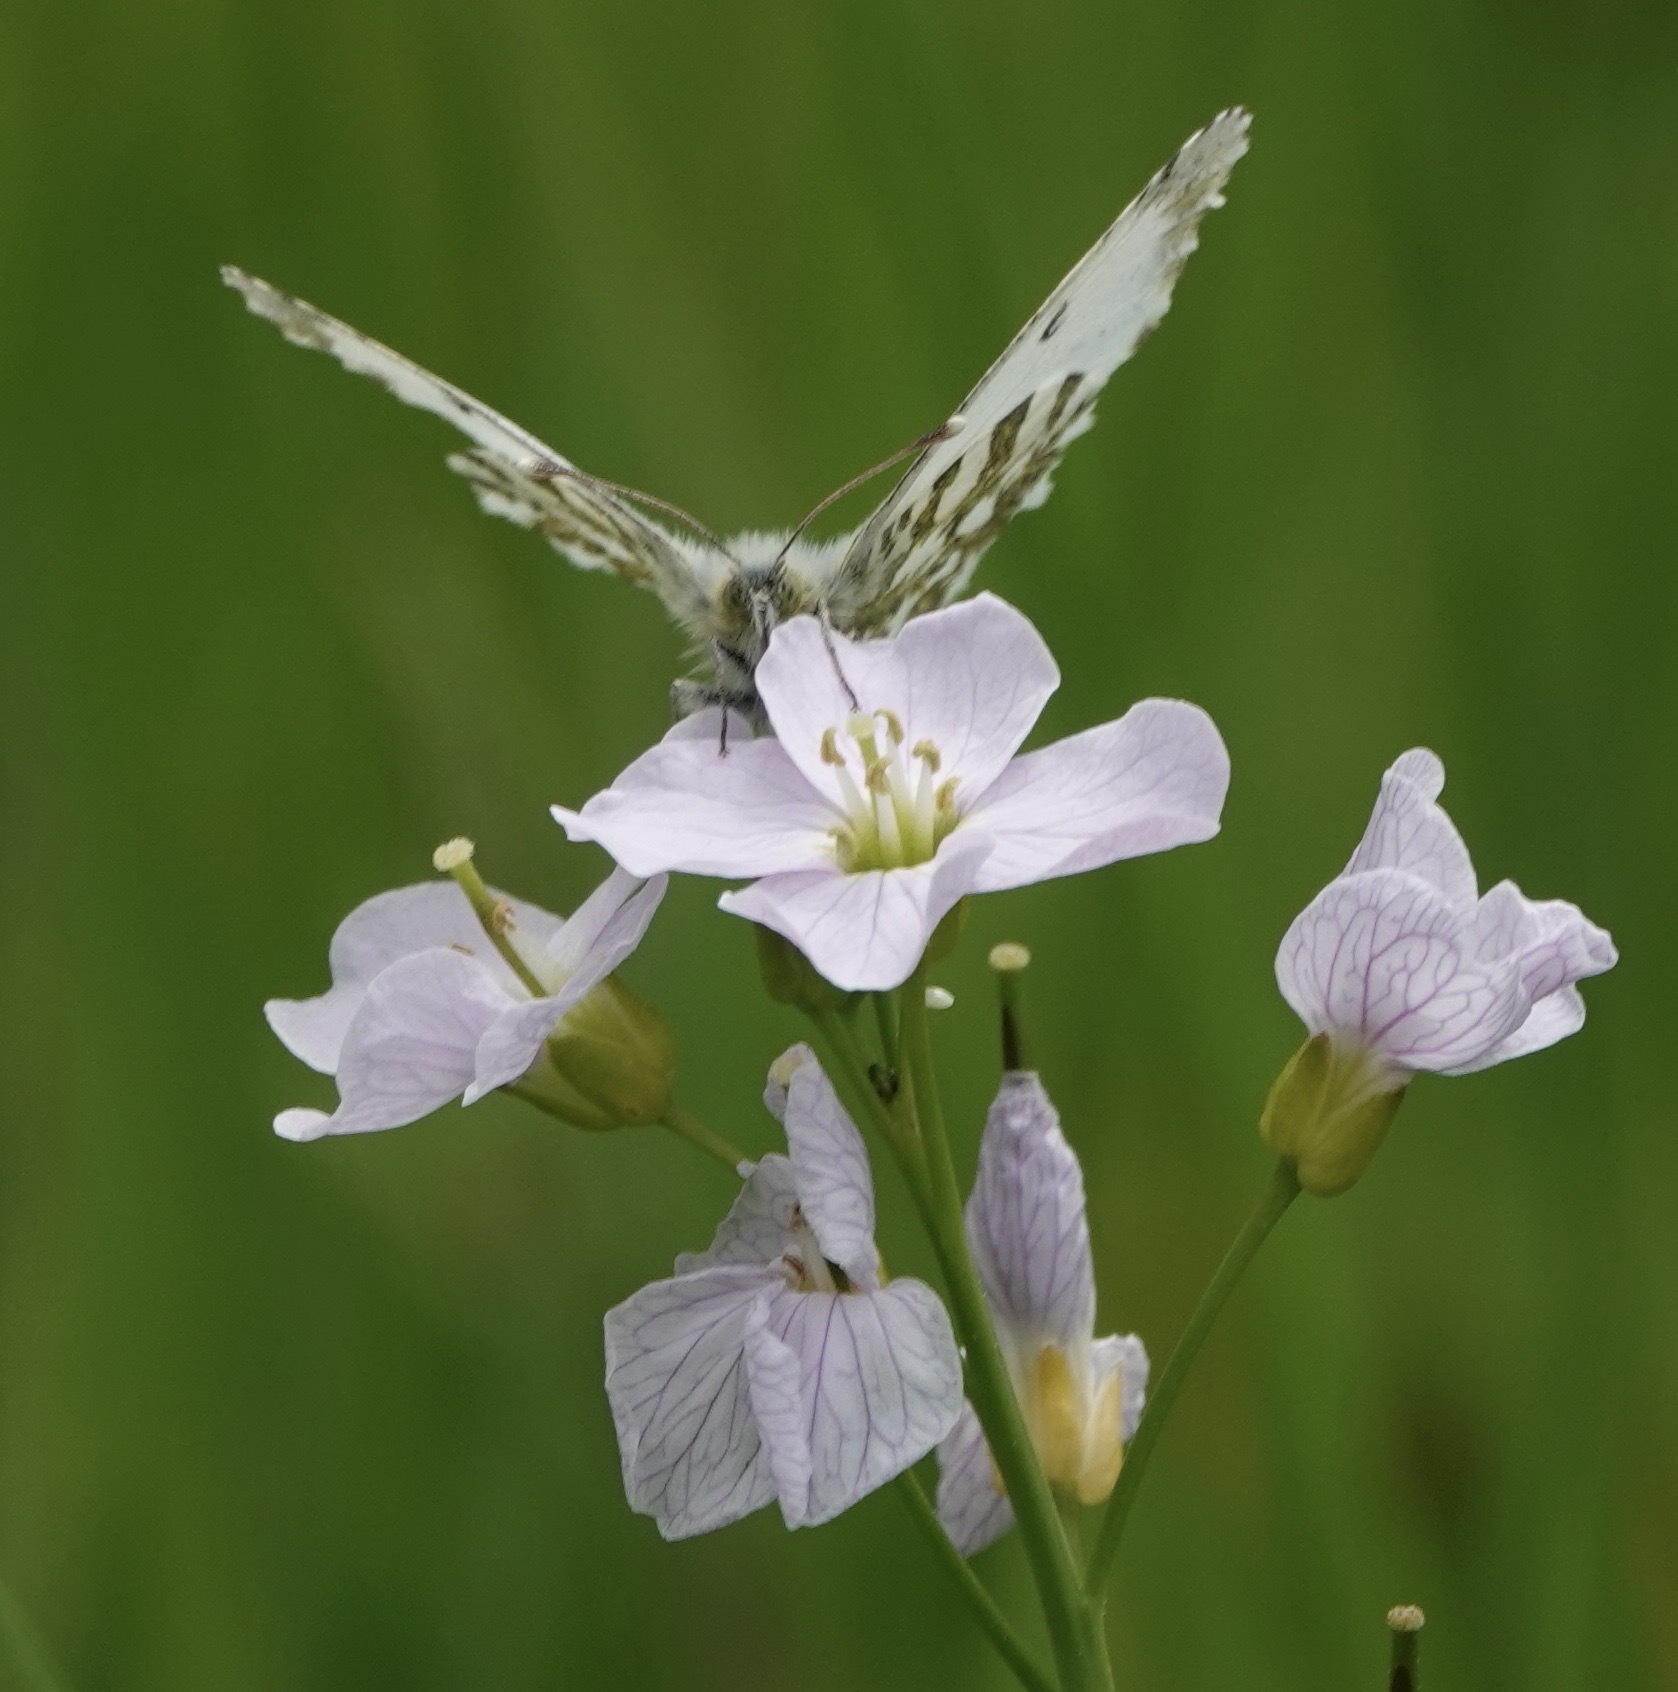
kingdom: Animalia
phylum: Arthropoda
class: Insecta
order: Lepidoptera
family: Pieridae
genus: Anthocharis
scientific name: Anthocharis cardamines
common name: Orange-tip
